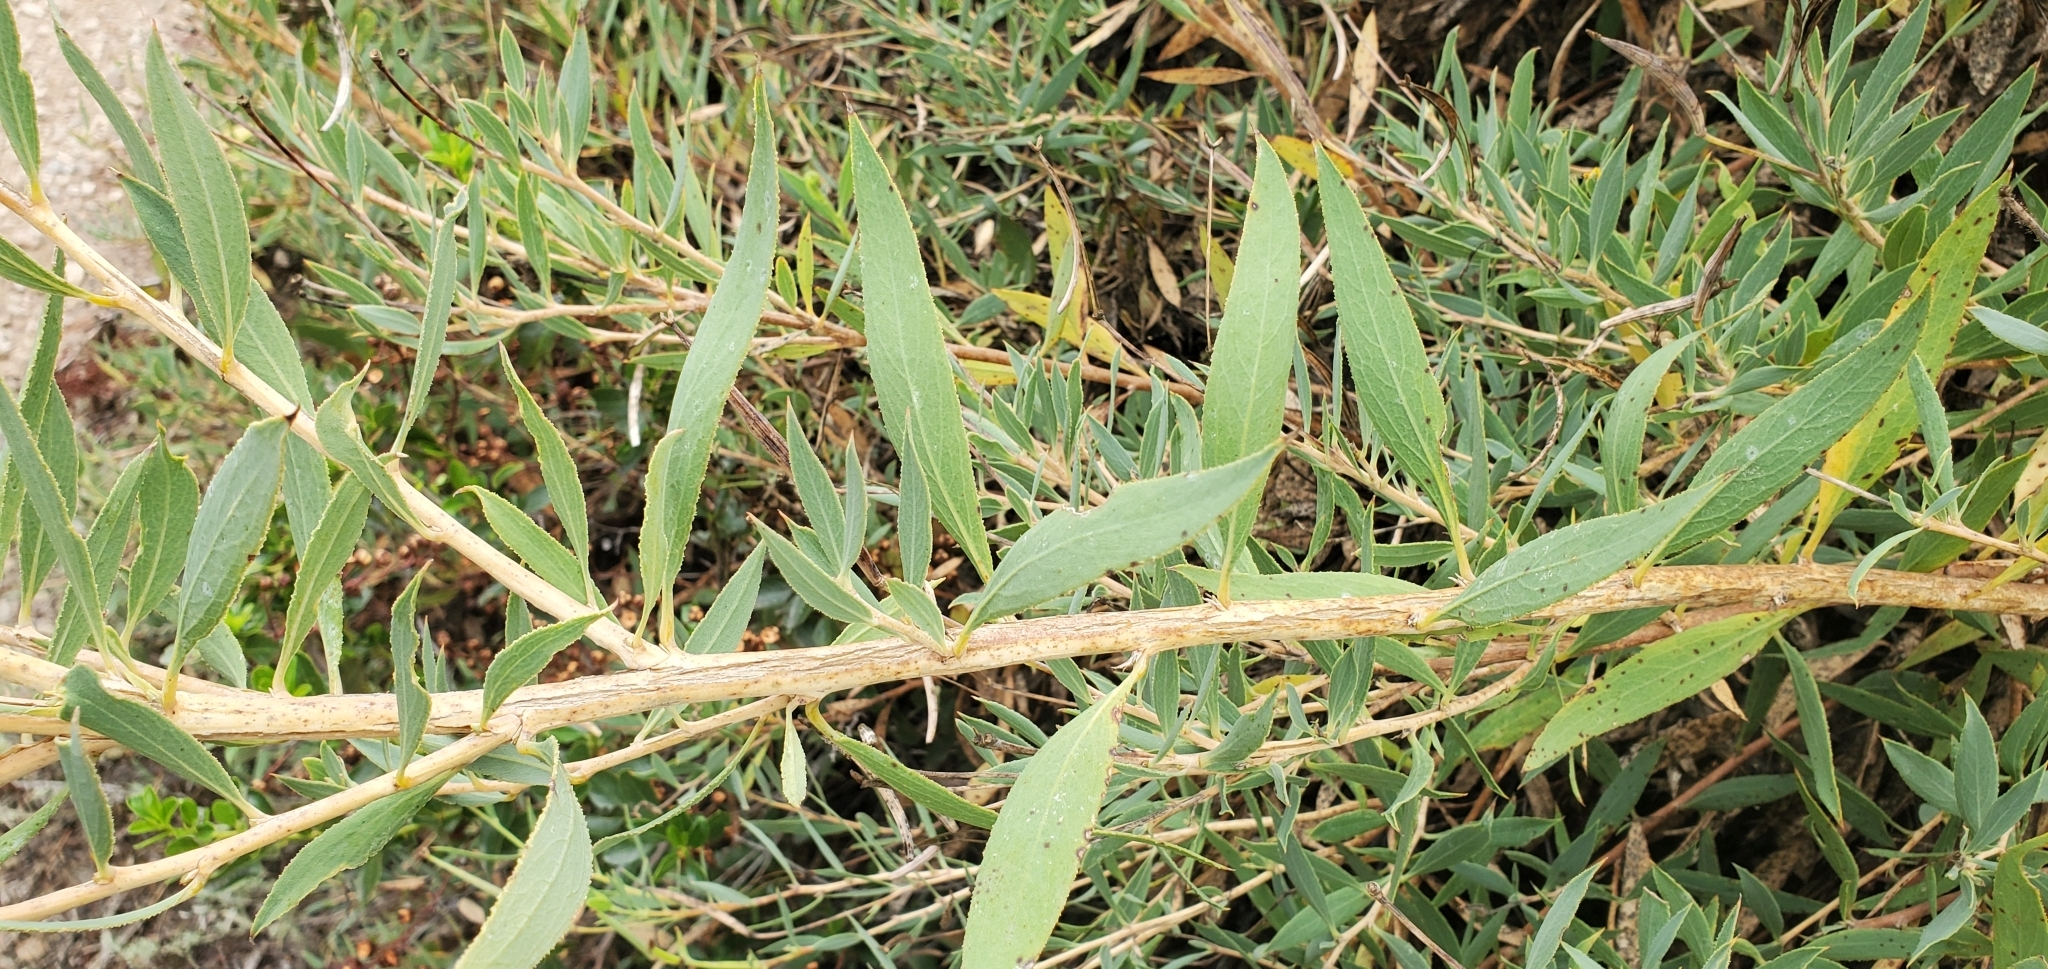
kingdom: Plantae
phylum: Tracheophyta
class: Magnoliopsida
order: Ranunculales
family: Papaveraceae
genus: Dendromecon
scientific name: Dendromecon rigida
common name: Tree poppy
